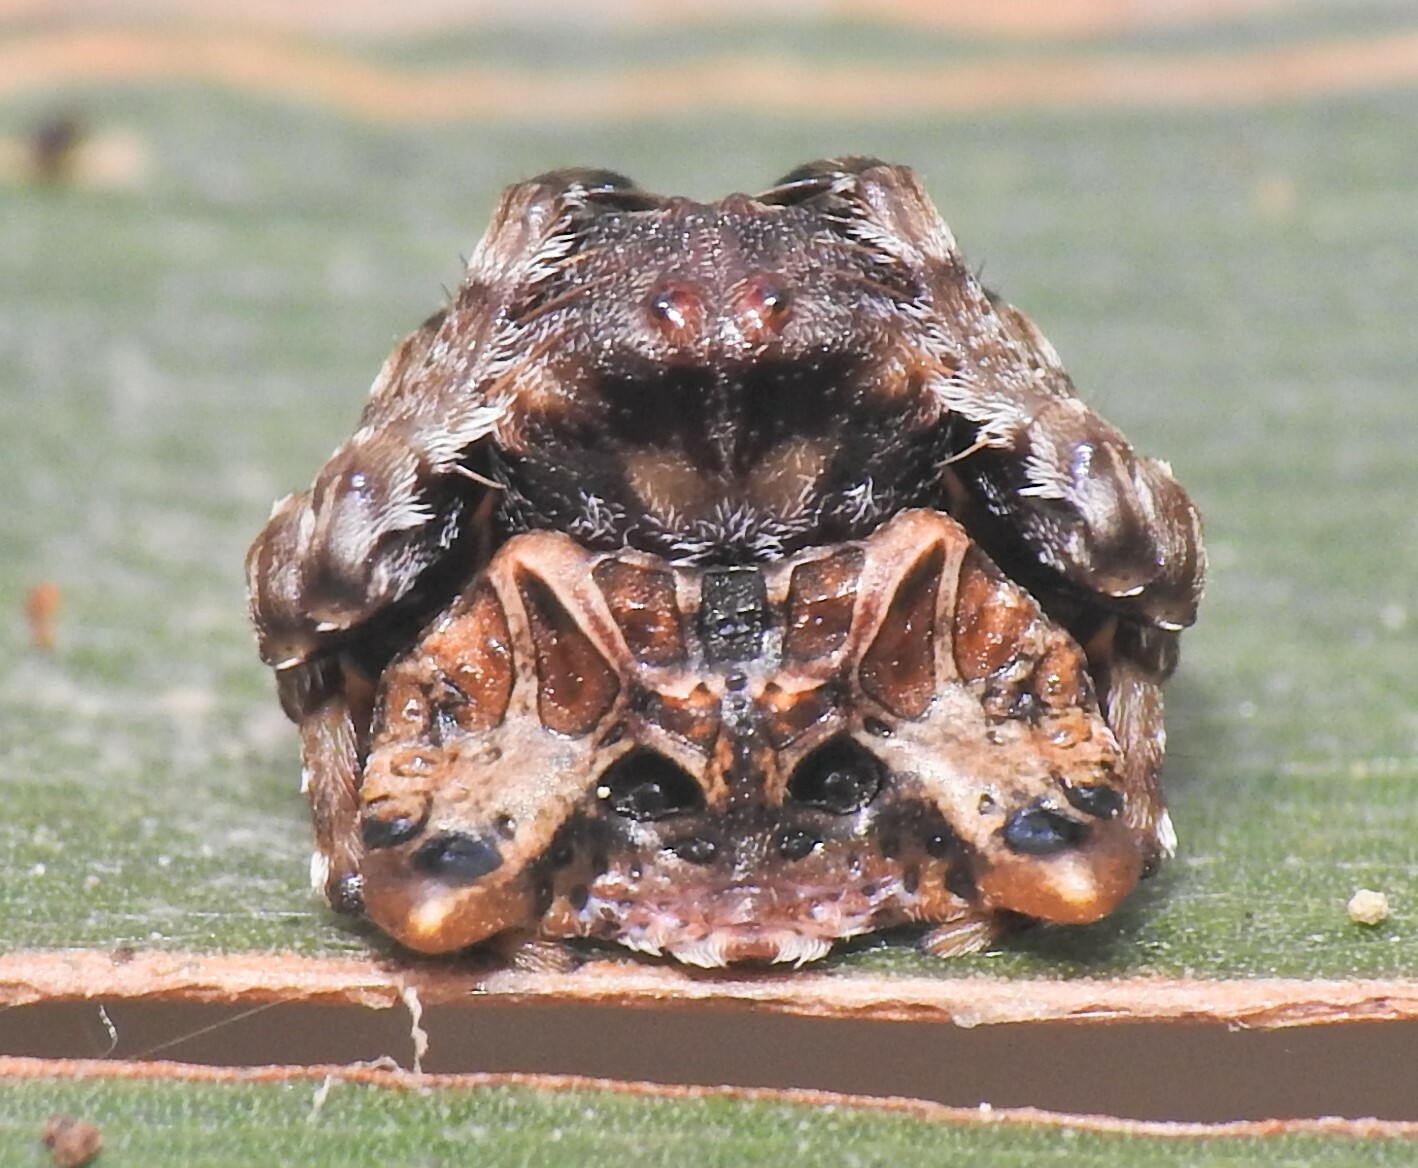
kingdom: Animalia
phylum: Arthropoda
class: Arachnida
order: Araneae
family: Arkyidae
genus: Arkys
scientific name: Arkys curtulus
